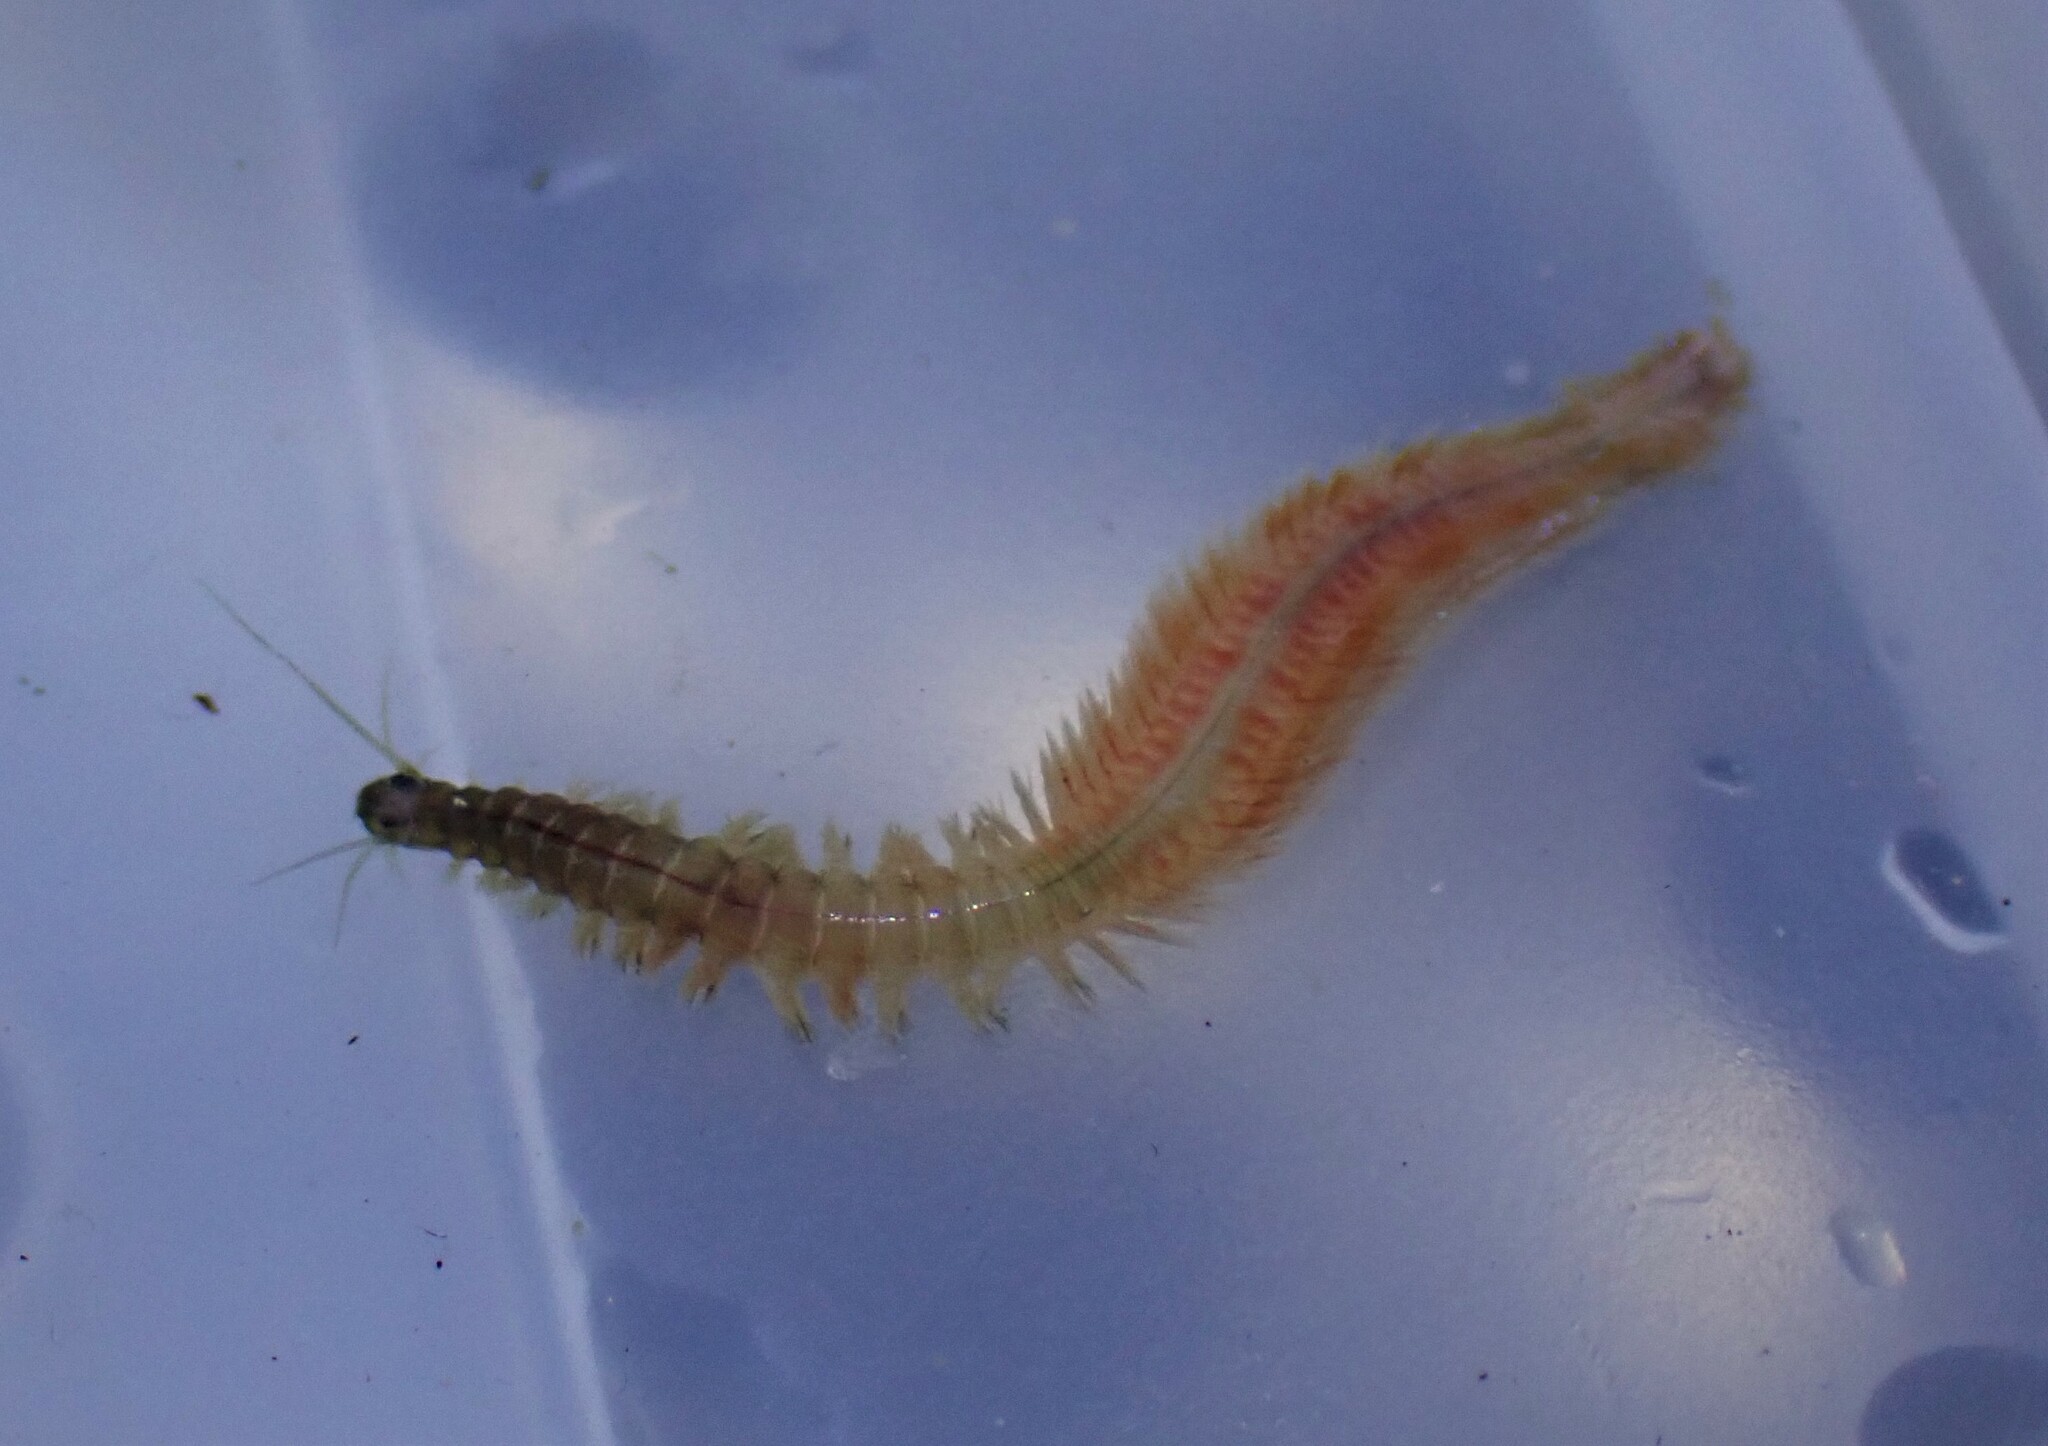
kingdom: Animalia
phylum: Annelida
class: Polychaeta
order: Phyllodocida
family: Nereididae
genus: Hediste
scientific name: Hediste diversicolor
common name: Estuary ragworm
